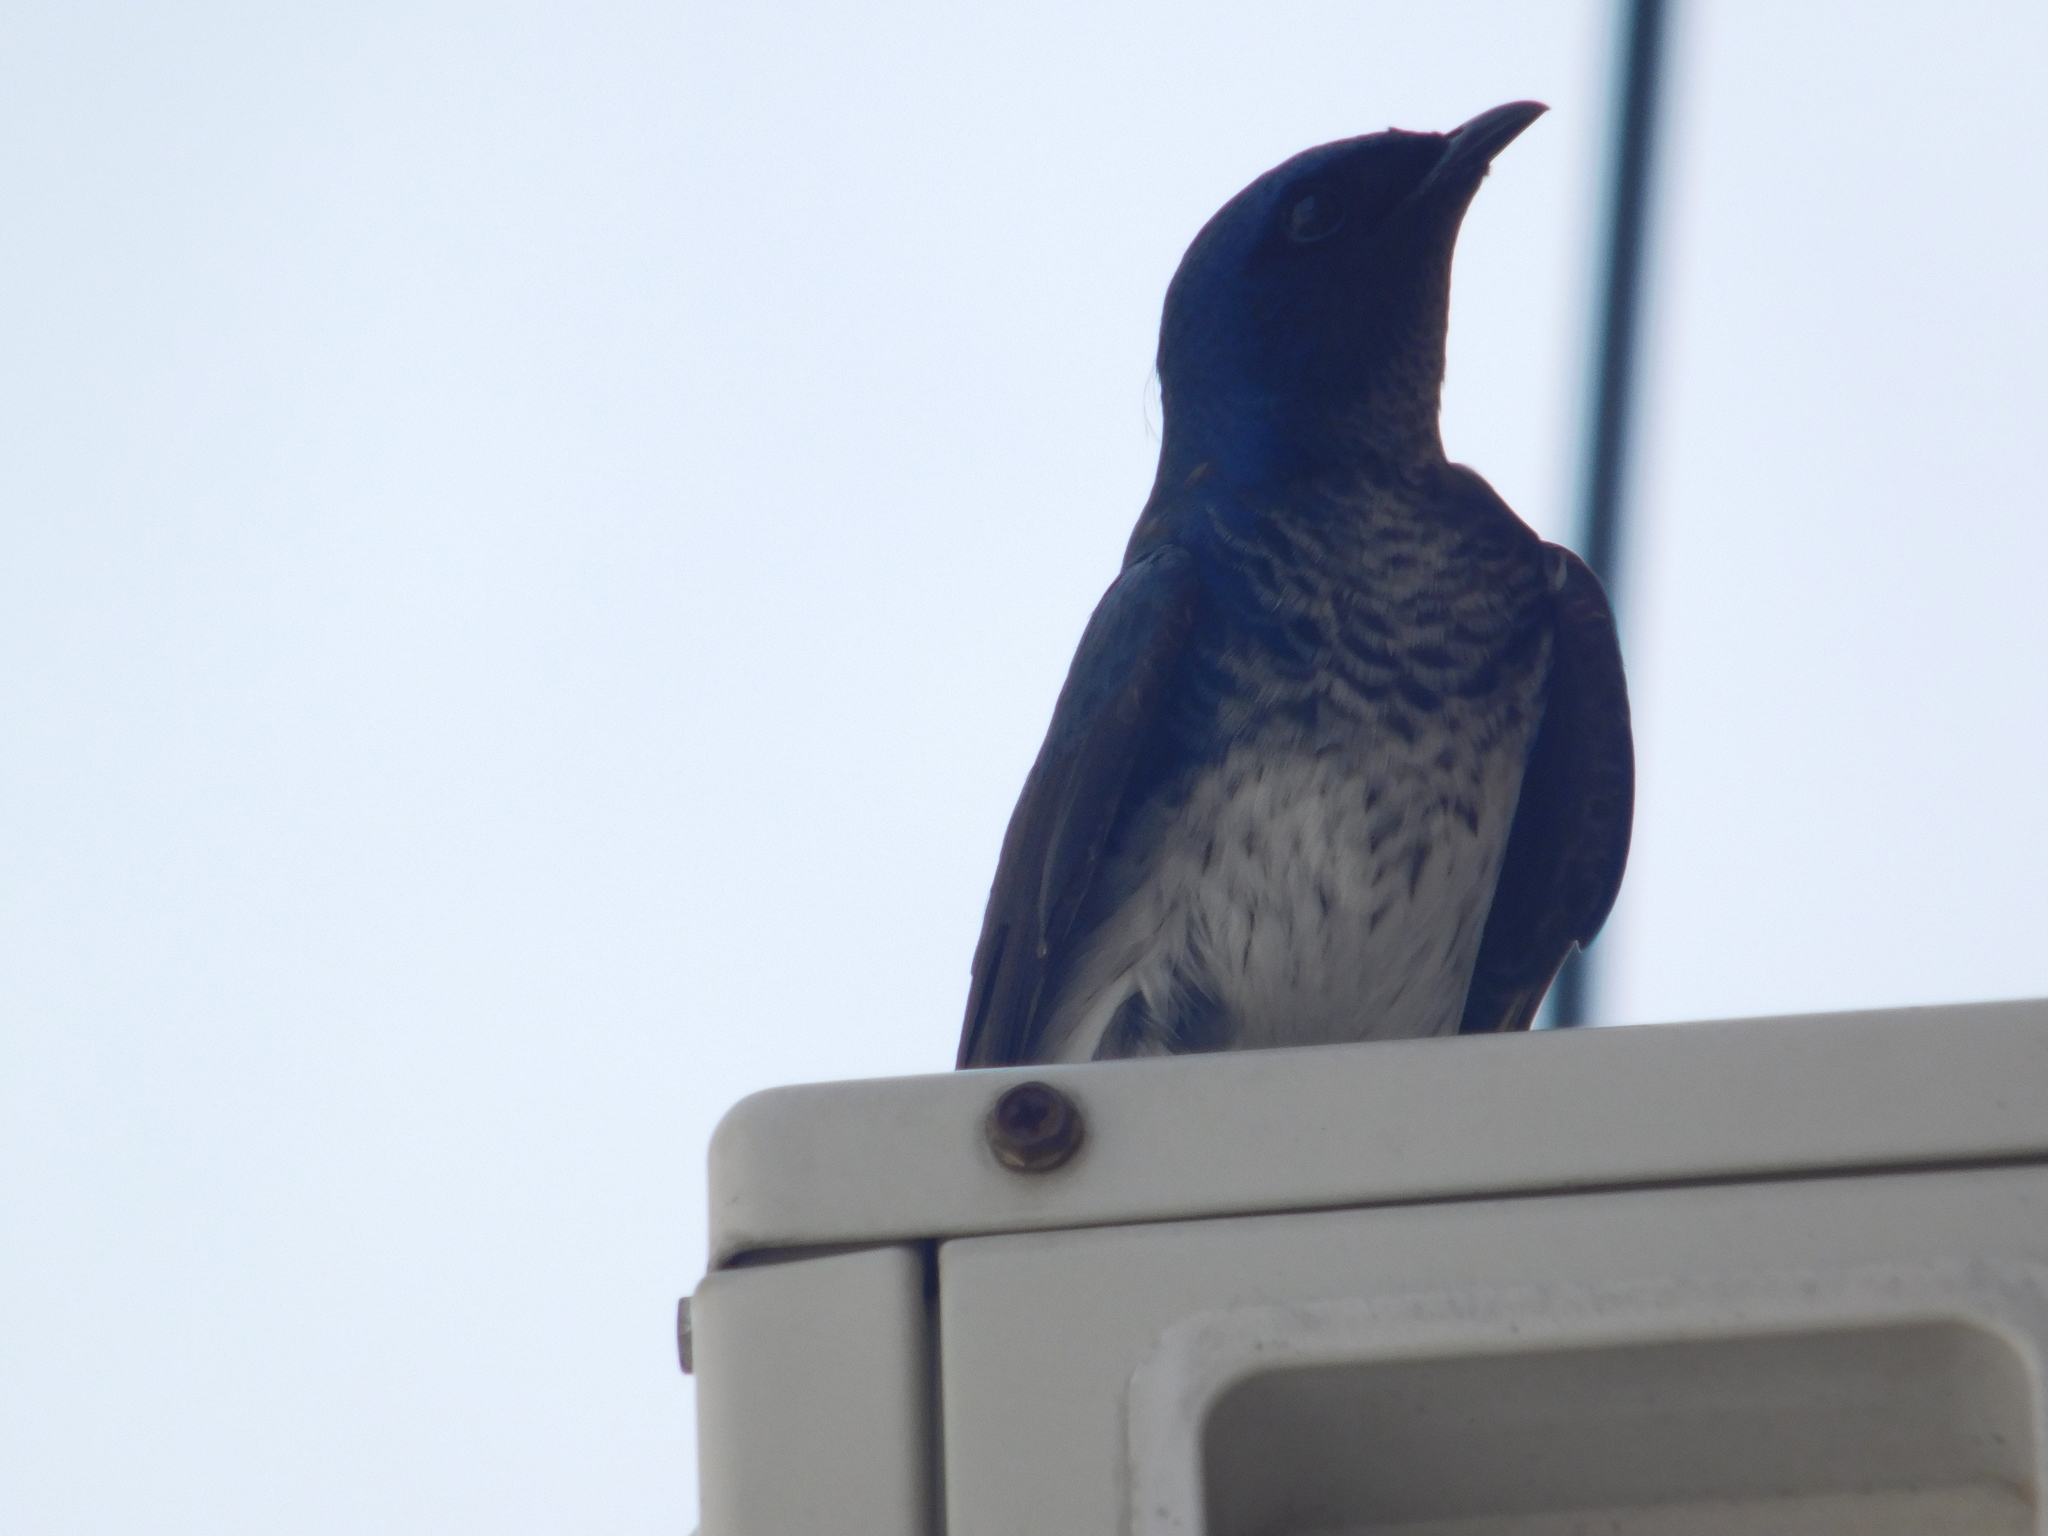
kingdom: Animalia
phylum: Chordata
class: Aves
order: Passeriformes
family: Hirundinidae
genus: Progne
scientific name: Progne chalybea
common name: Grey-breasted martin
